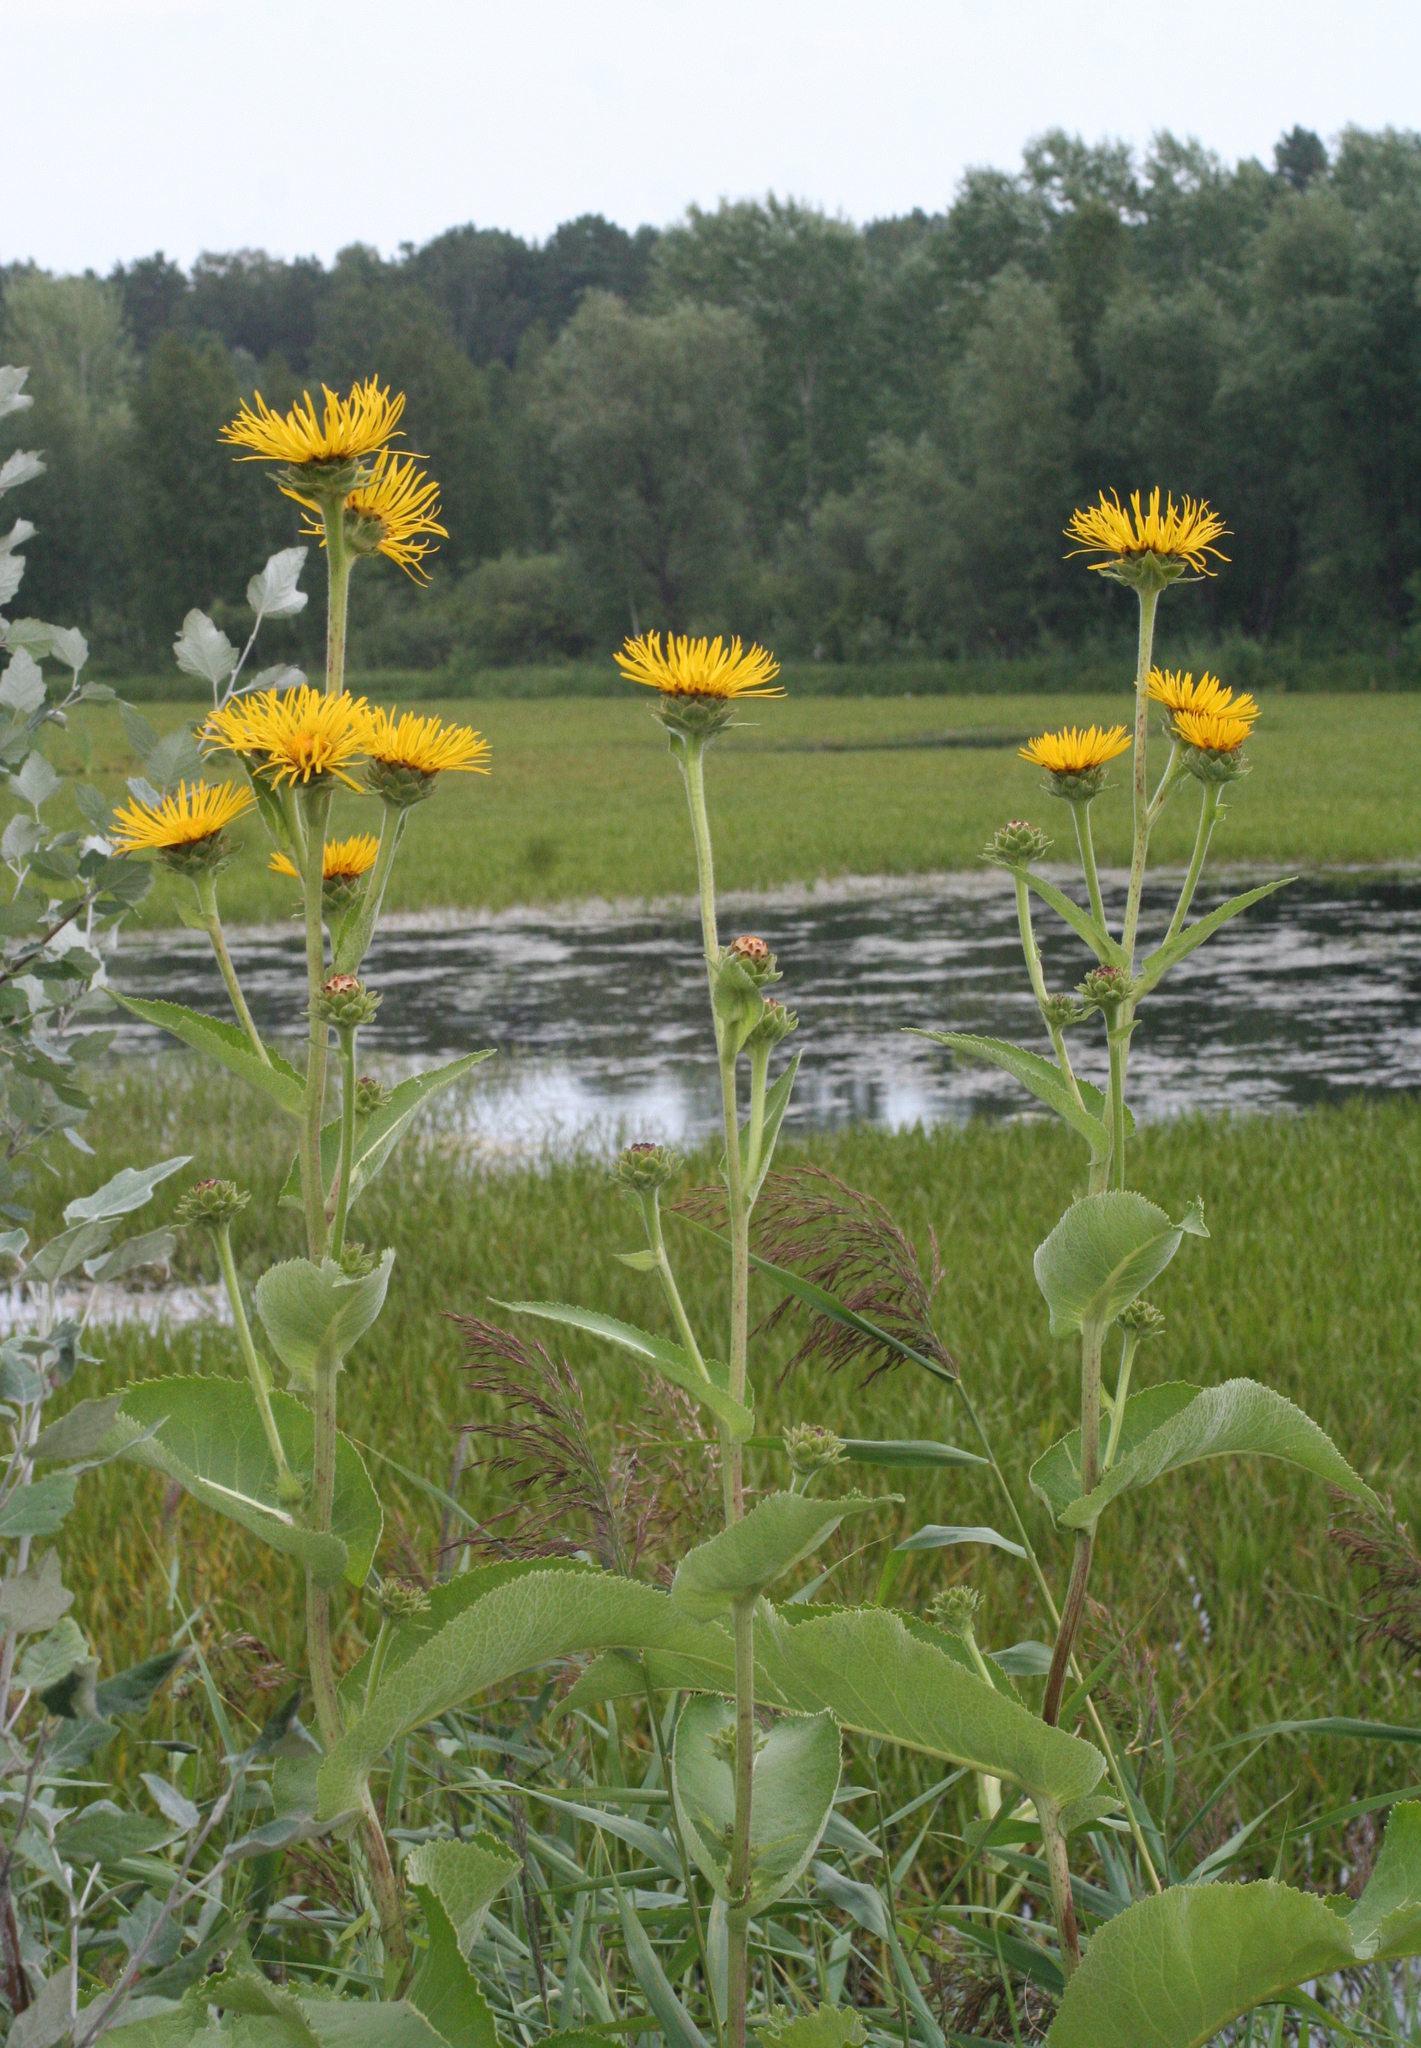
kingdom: Plantae
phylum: Tracheophyta
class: Magnoliopsida
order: Asterales
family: Asteraceae
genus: Inula
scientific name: Inula helenium
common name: Elecampane
